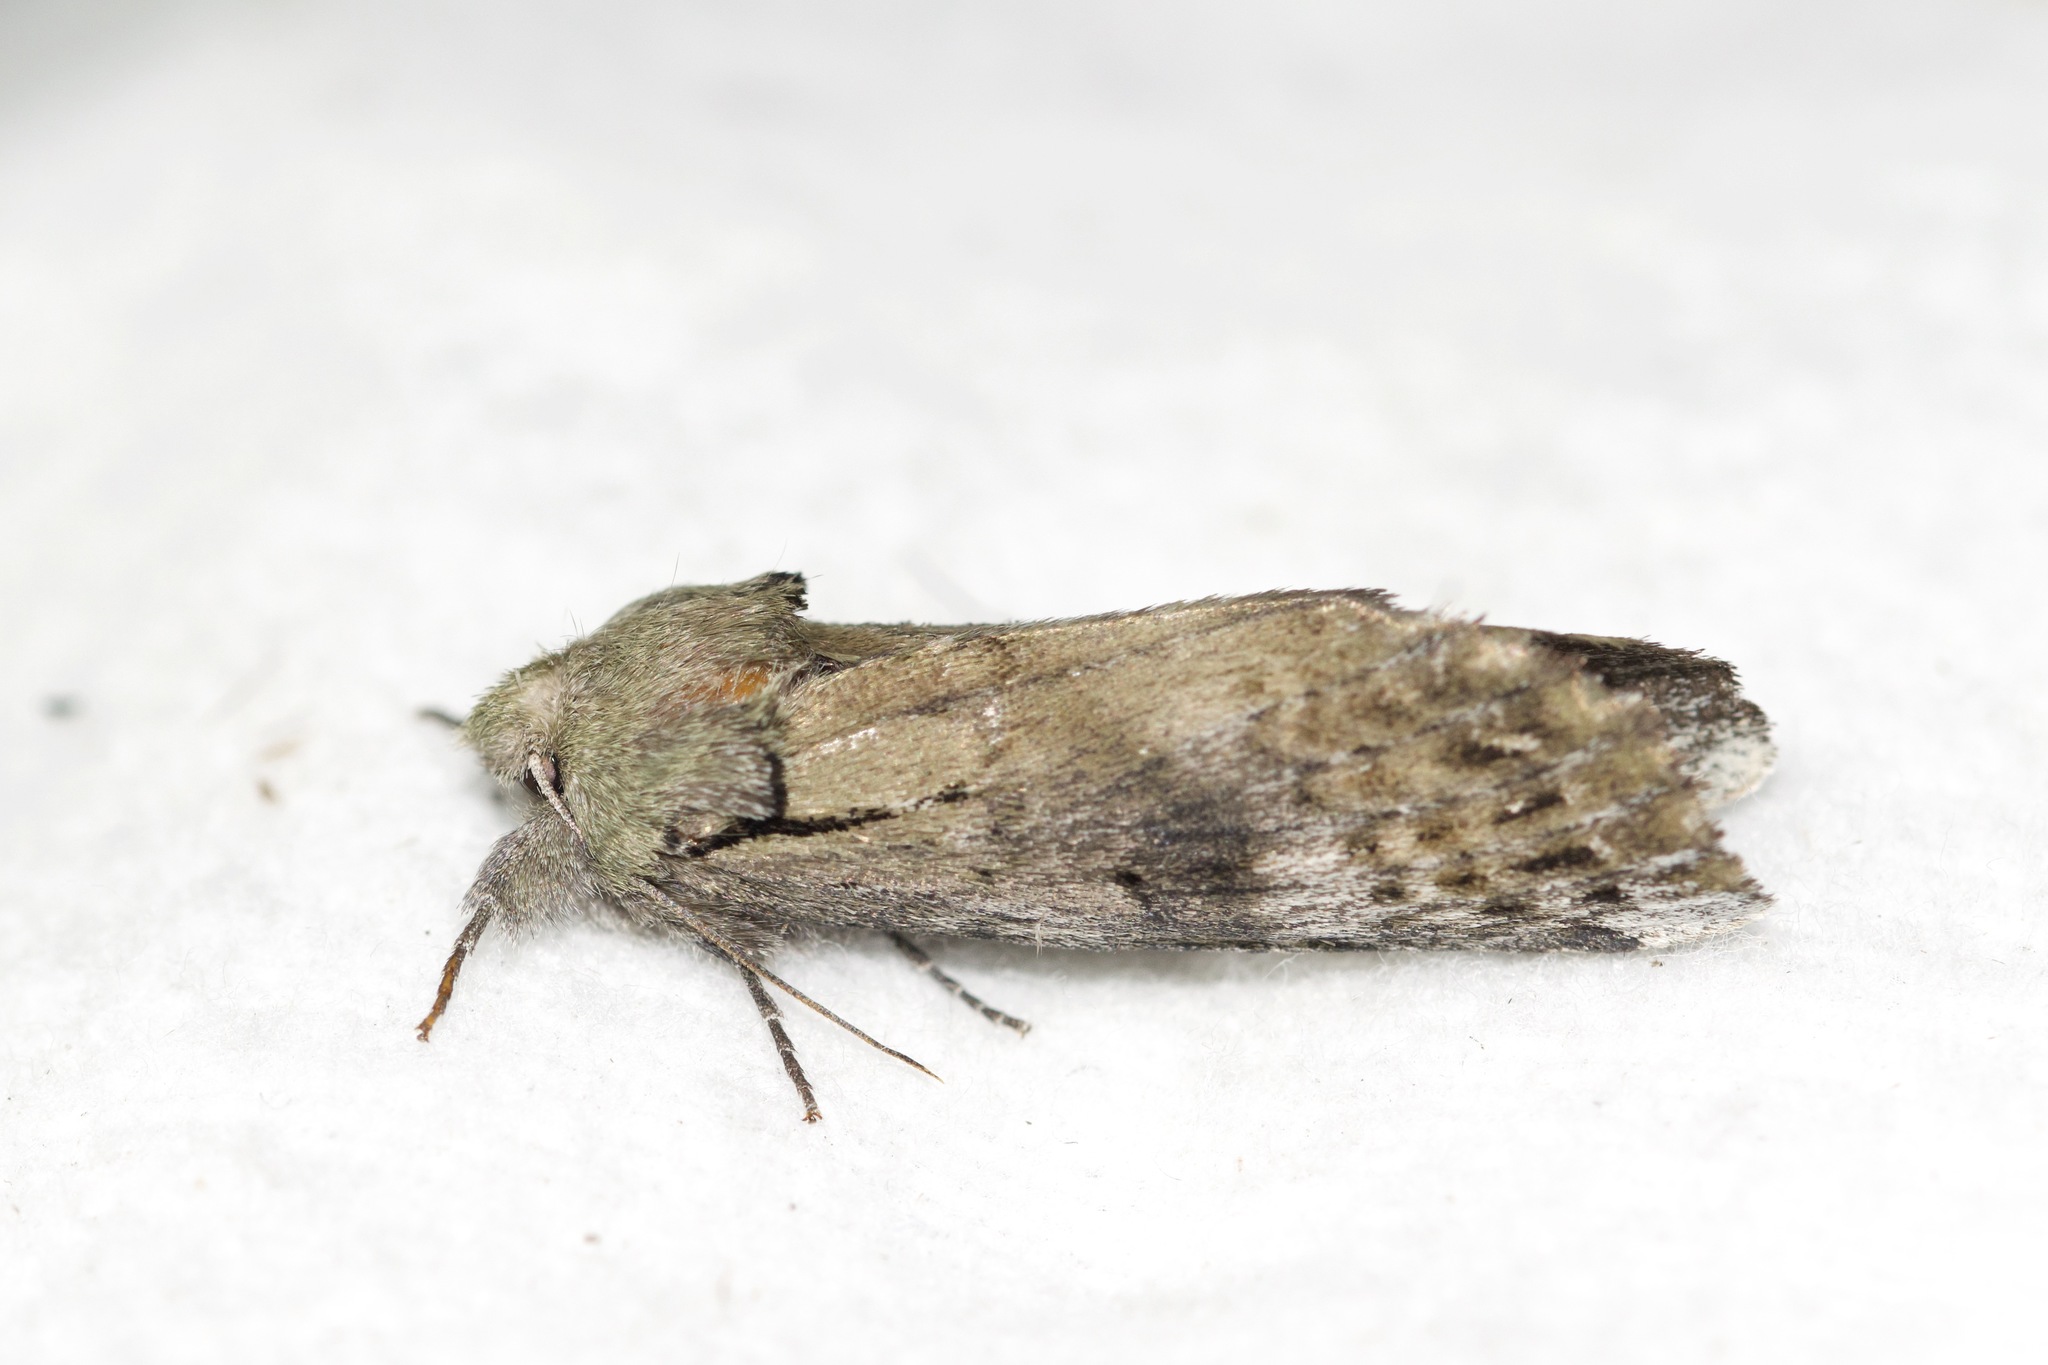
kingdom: Animalia
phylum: Arthropoda
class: Insecta
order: Lepidoptera
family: Notodontidae
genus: Schizura
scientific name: Schizura
